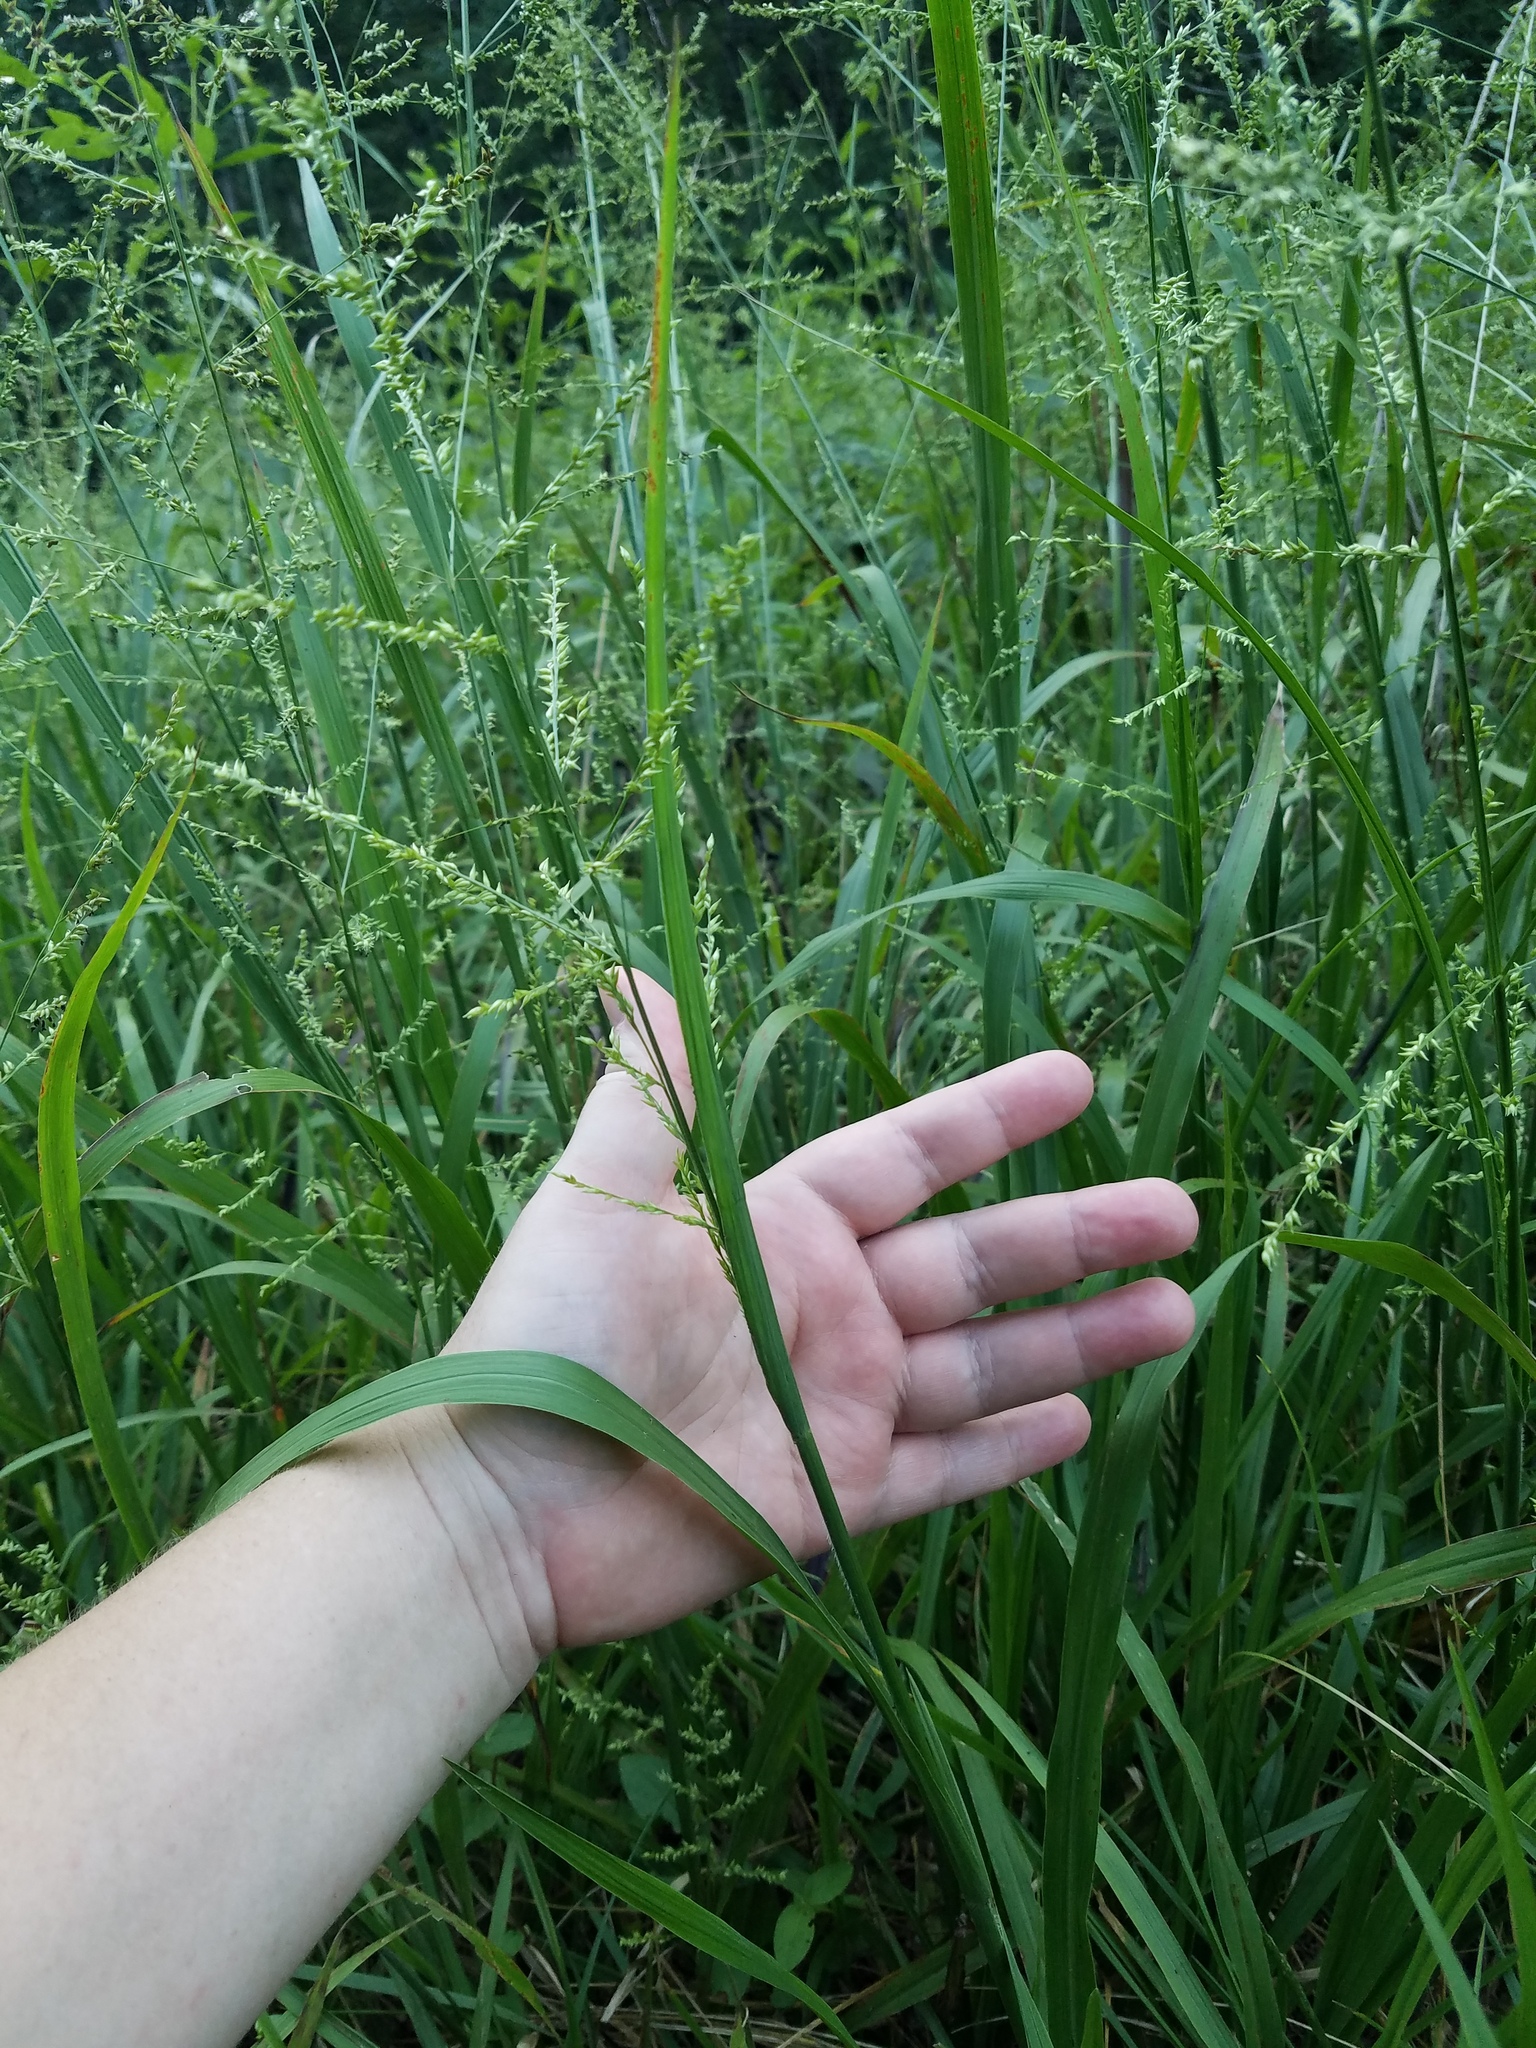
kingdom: Plantae
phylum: Tracheophyta
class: Liliopsida
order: Poales
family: Poaceae
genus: Coleataenia
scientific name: Coleataenia anceps
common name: Beaked panic grass
